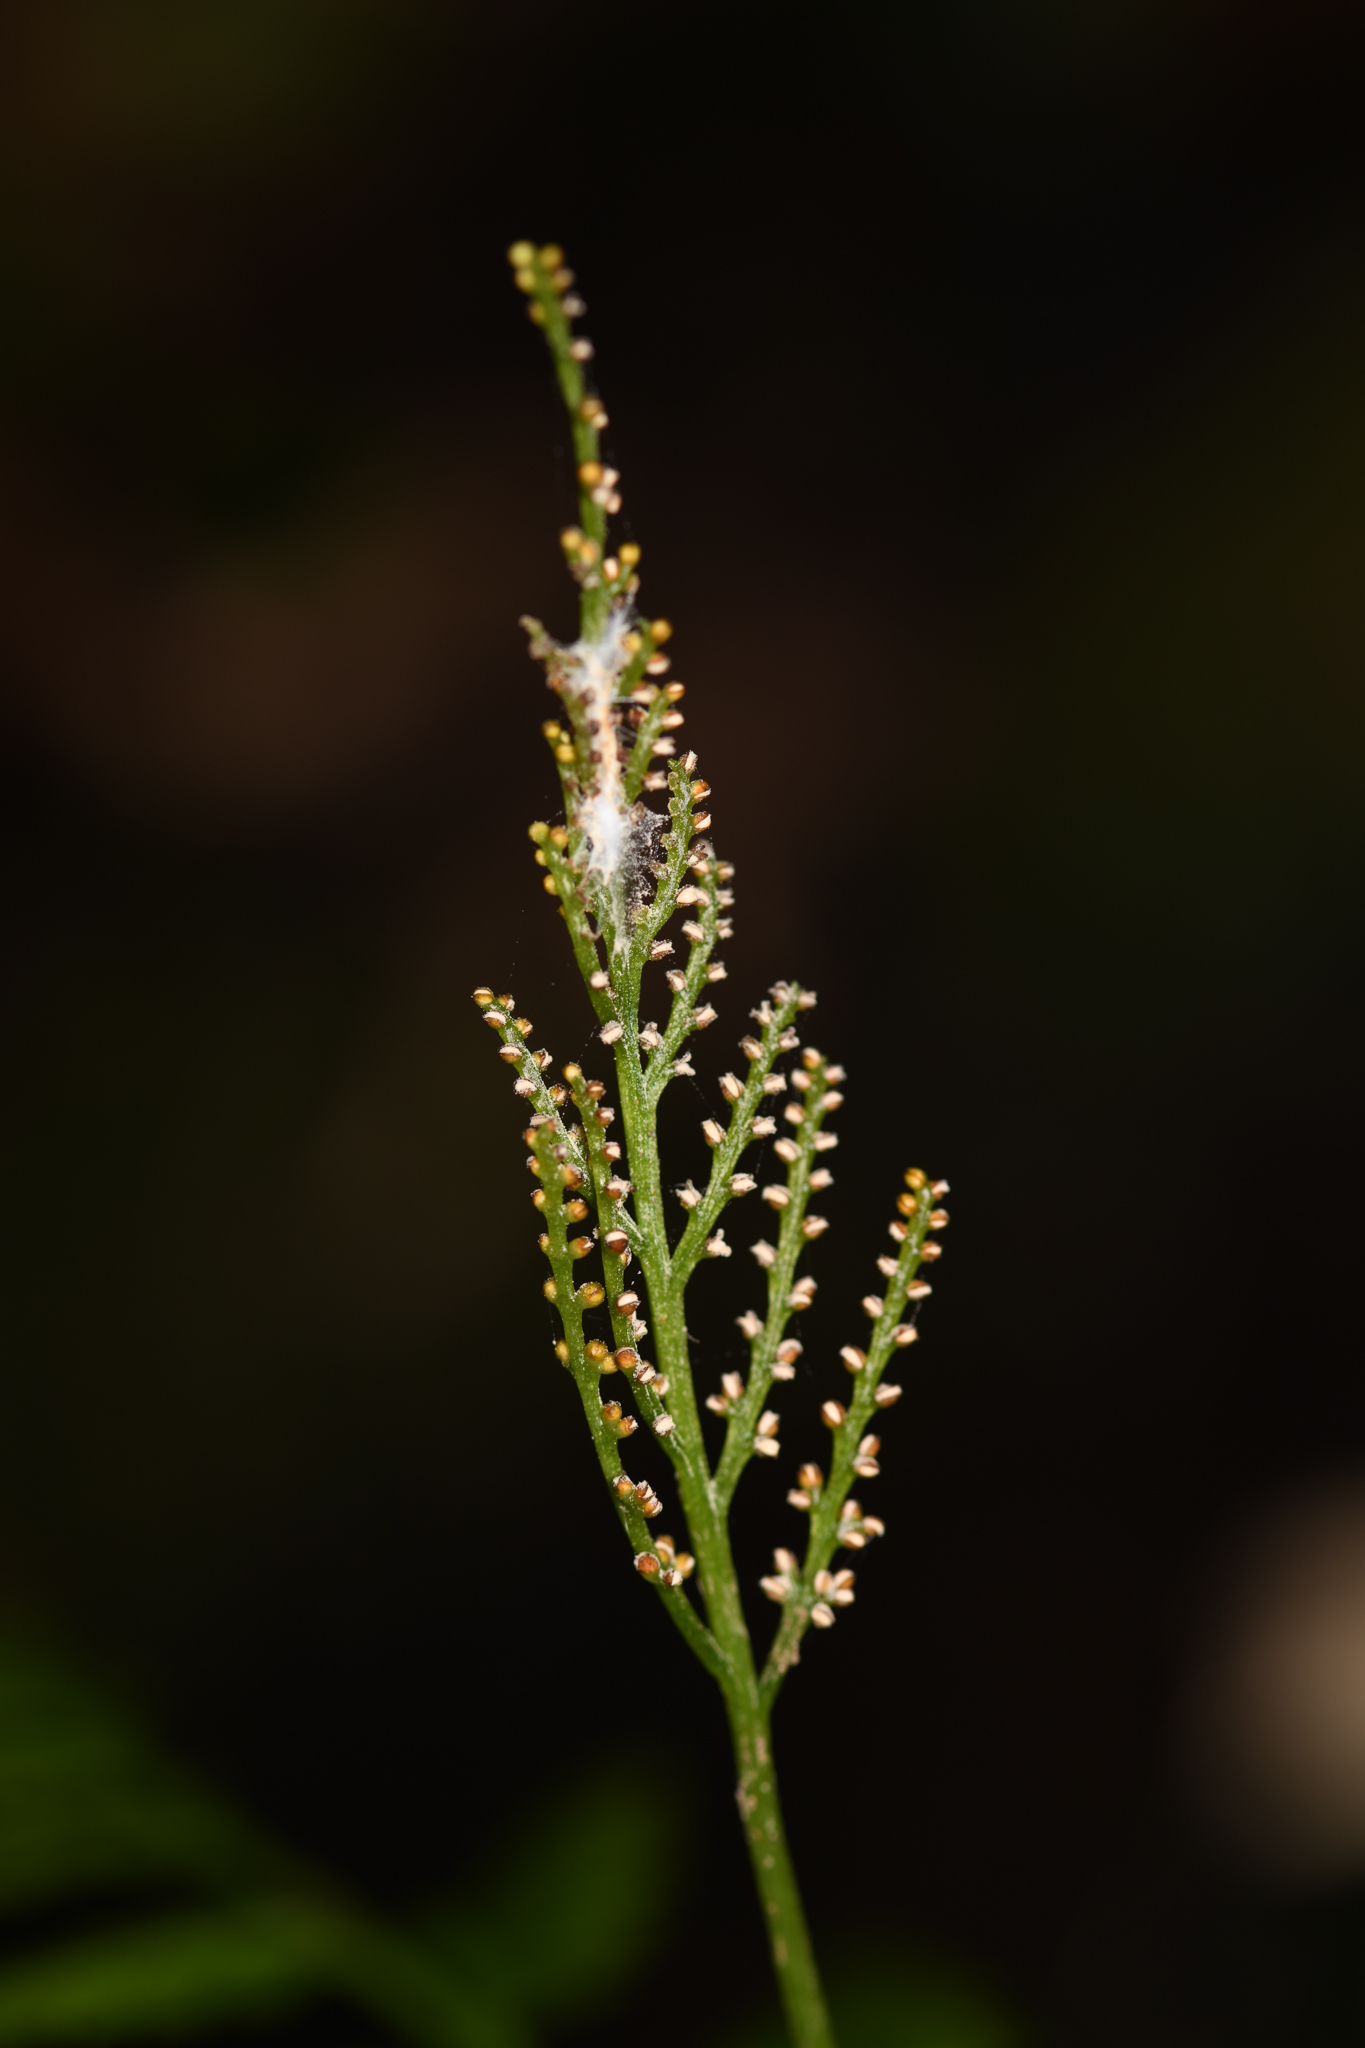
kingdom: Plantae
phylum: Tracheophyta
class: Polypodiopsida
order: Ophioglossales
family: Ophioglossaceae
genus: Botrypus
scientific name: Botrypus virginianus
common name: Common grapefern
